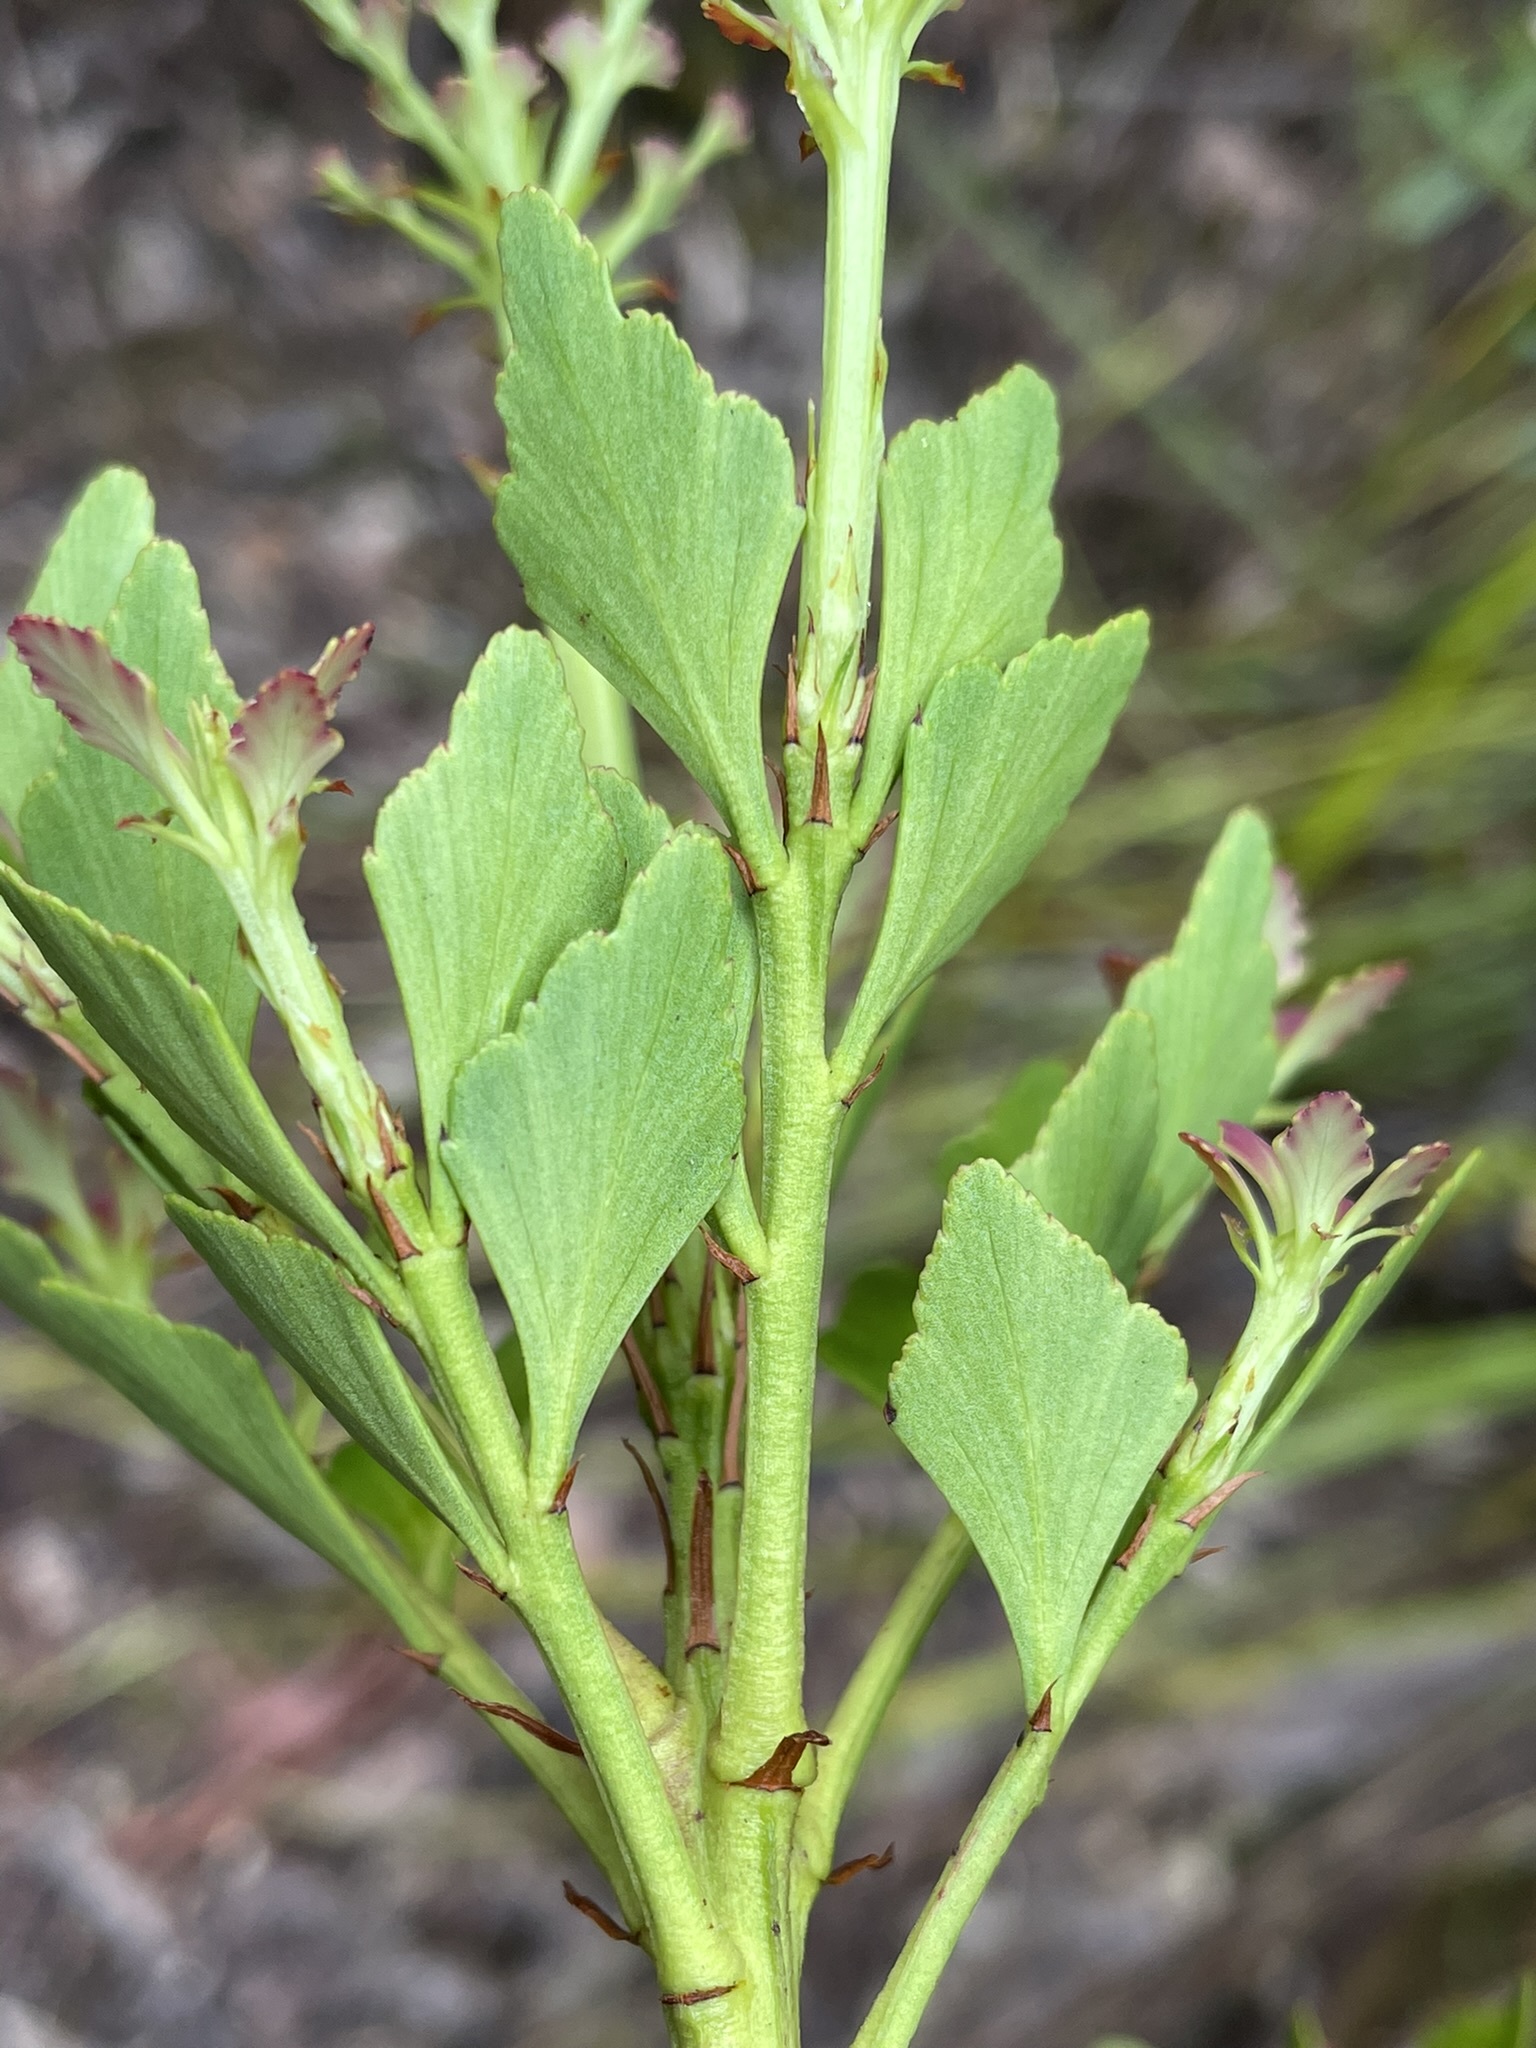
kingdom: Plantae
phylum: Tracheophyta
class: Pinopsida
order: Pinales
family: Phyllocladaceae
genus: Phyllocladus
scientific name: Phyllocladus aspleniifolius
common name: Celery-top pine
